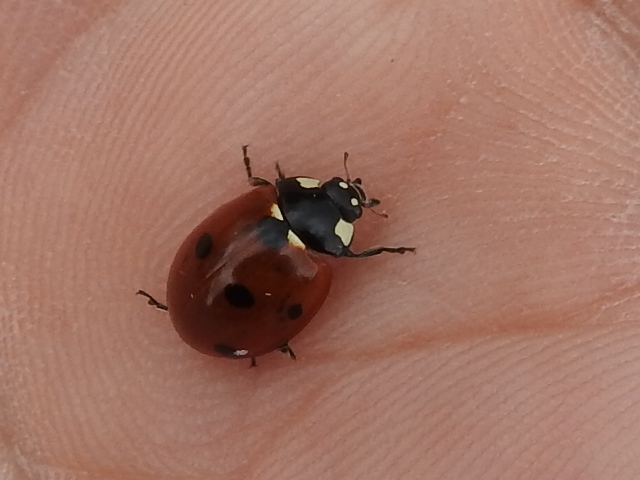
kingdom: Animalia
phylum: Arthropoda
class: Insecta
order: Coleoptera
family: Coccinellidae
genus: Coccinella
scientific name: Coccinella septempunctata
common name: Sevenspotted lady beetle
